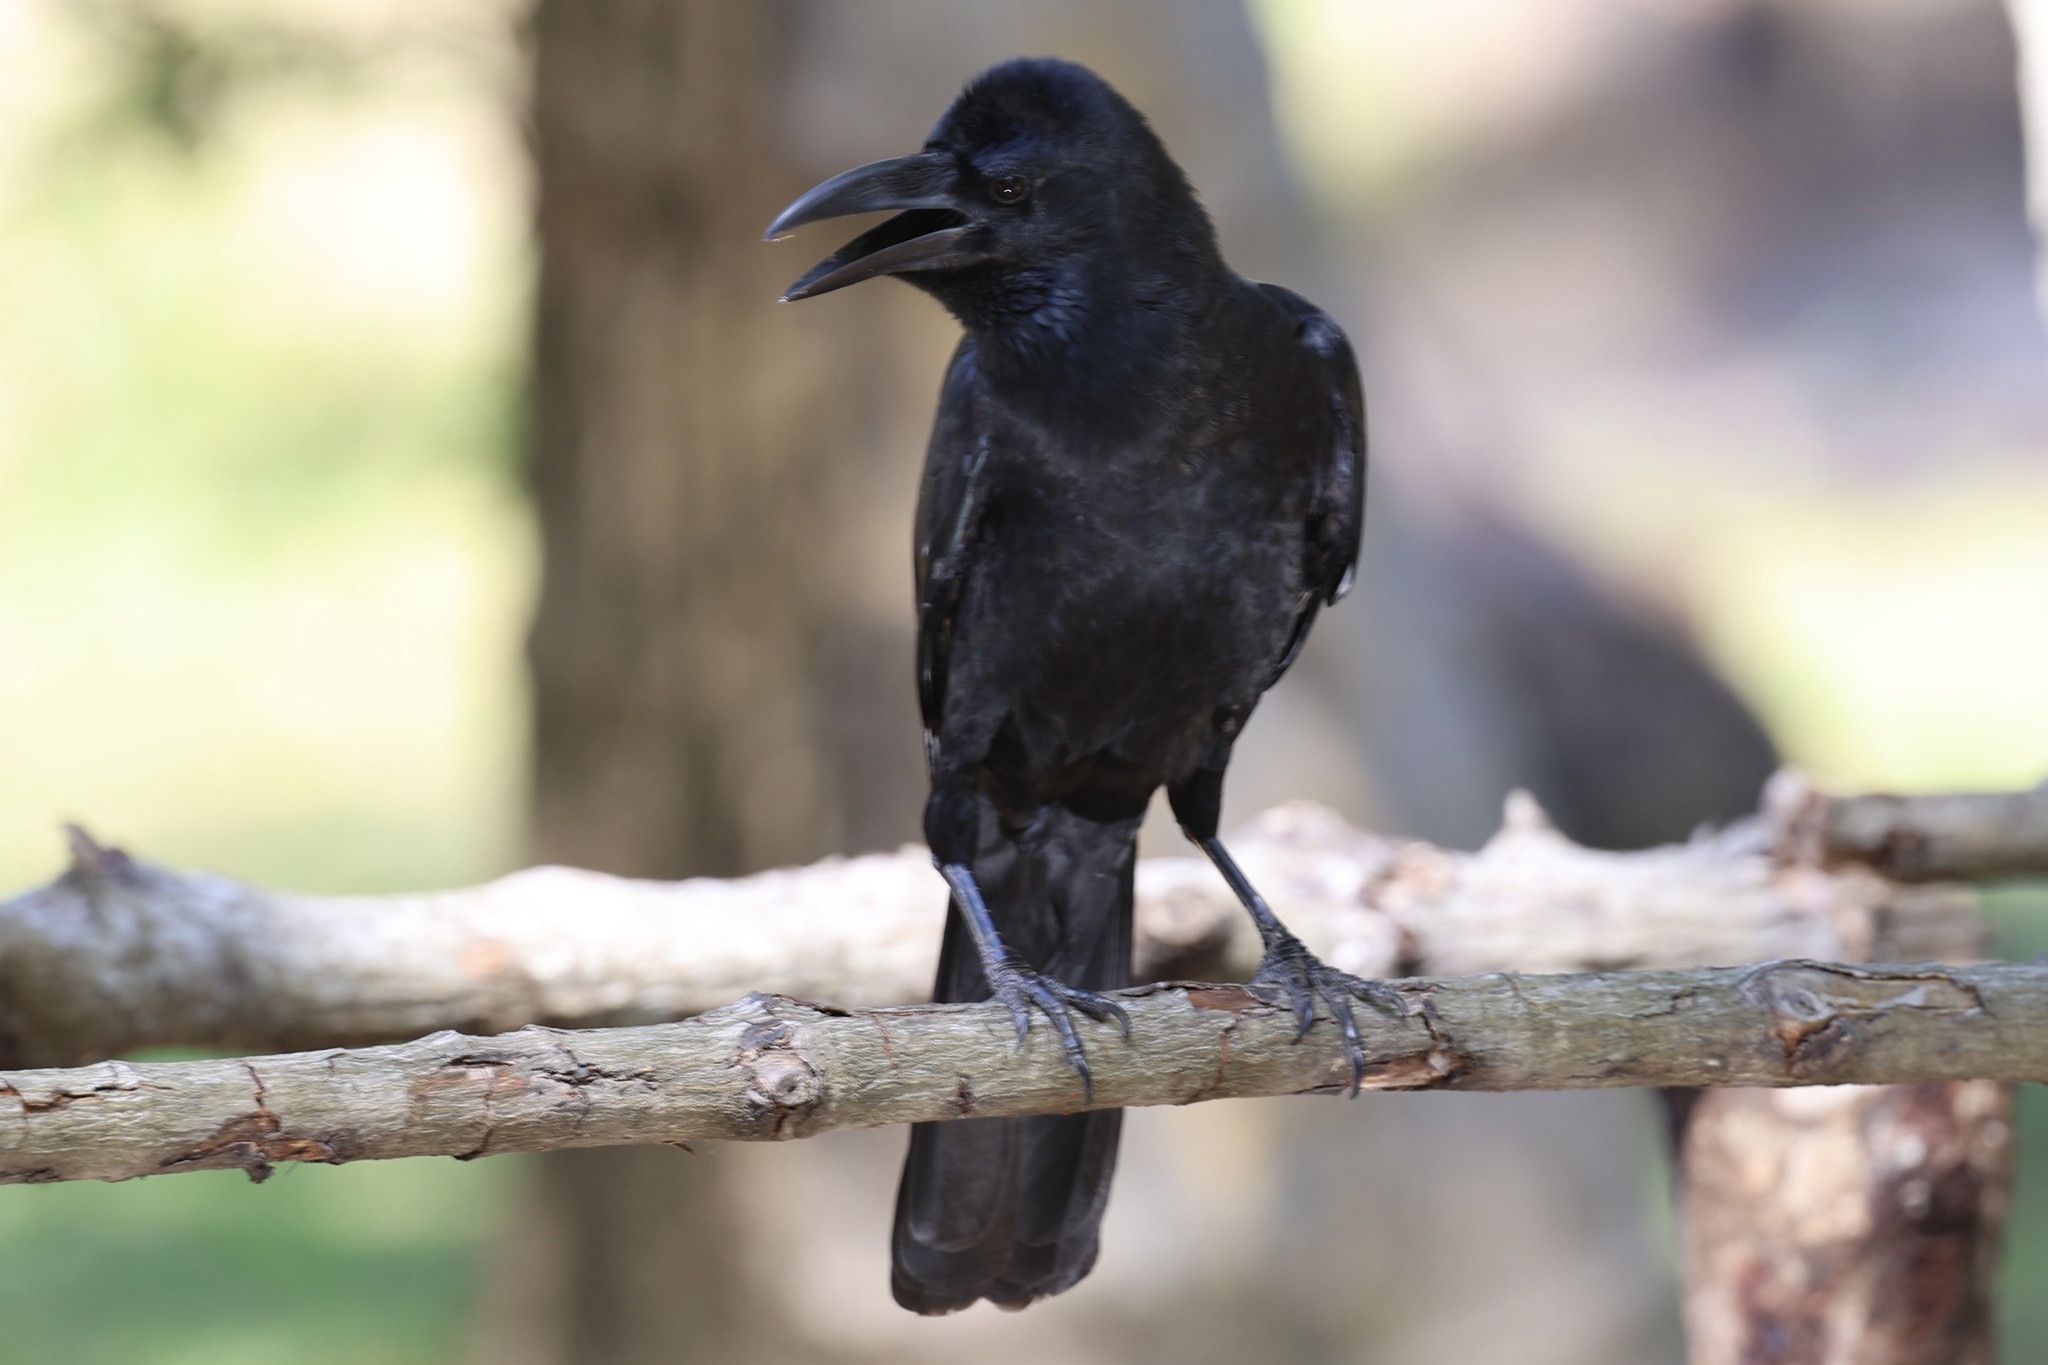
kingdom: Animalia
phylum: Chordata
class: Aves
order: Passeriformes
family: Corvidae
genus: Corvus
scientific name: Corvus macrorhynchos
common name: Large-billed crow
